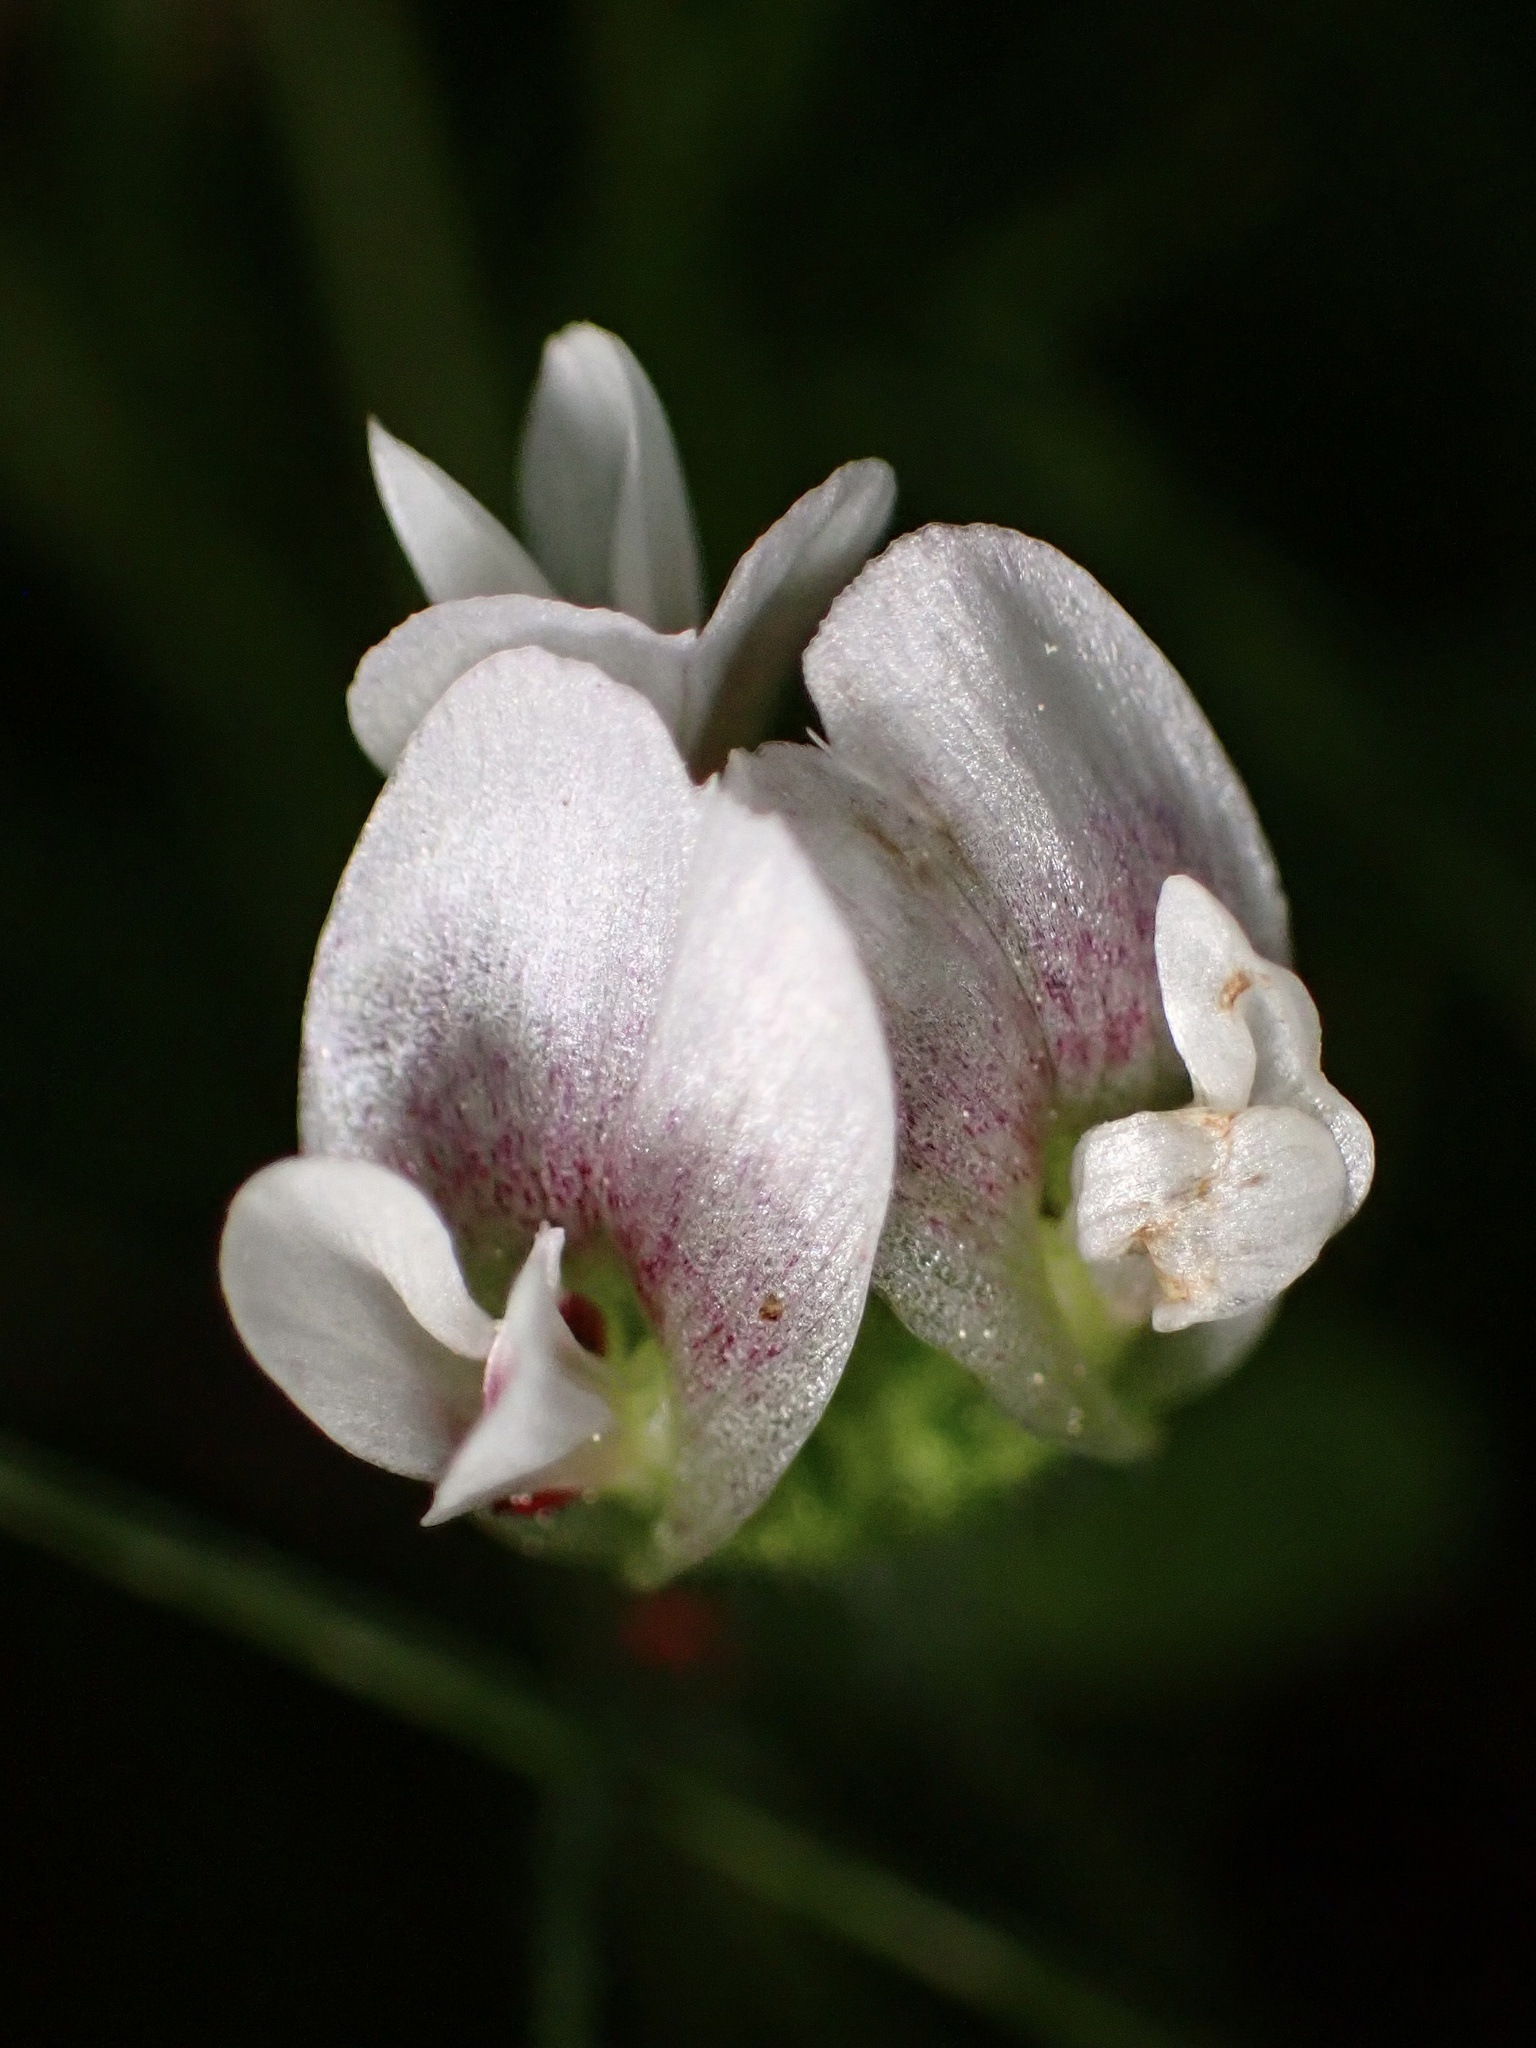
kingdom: Plantae
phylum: Tracheophyta
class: Magnoliopsida
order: Fabales
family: Fabaceae
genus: Trifolium
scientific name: Trifolium monanthum
